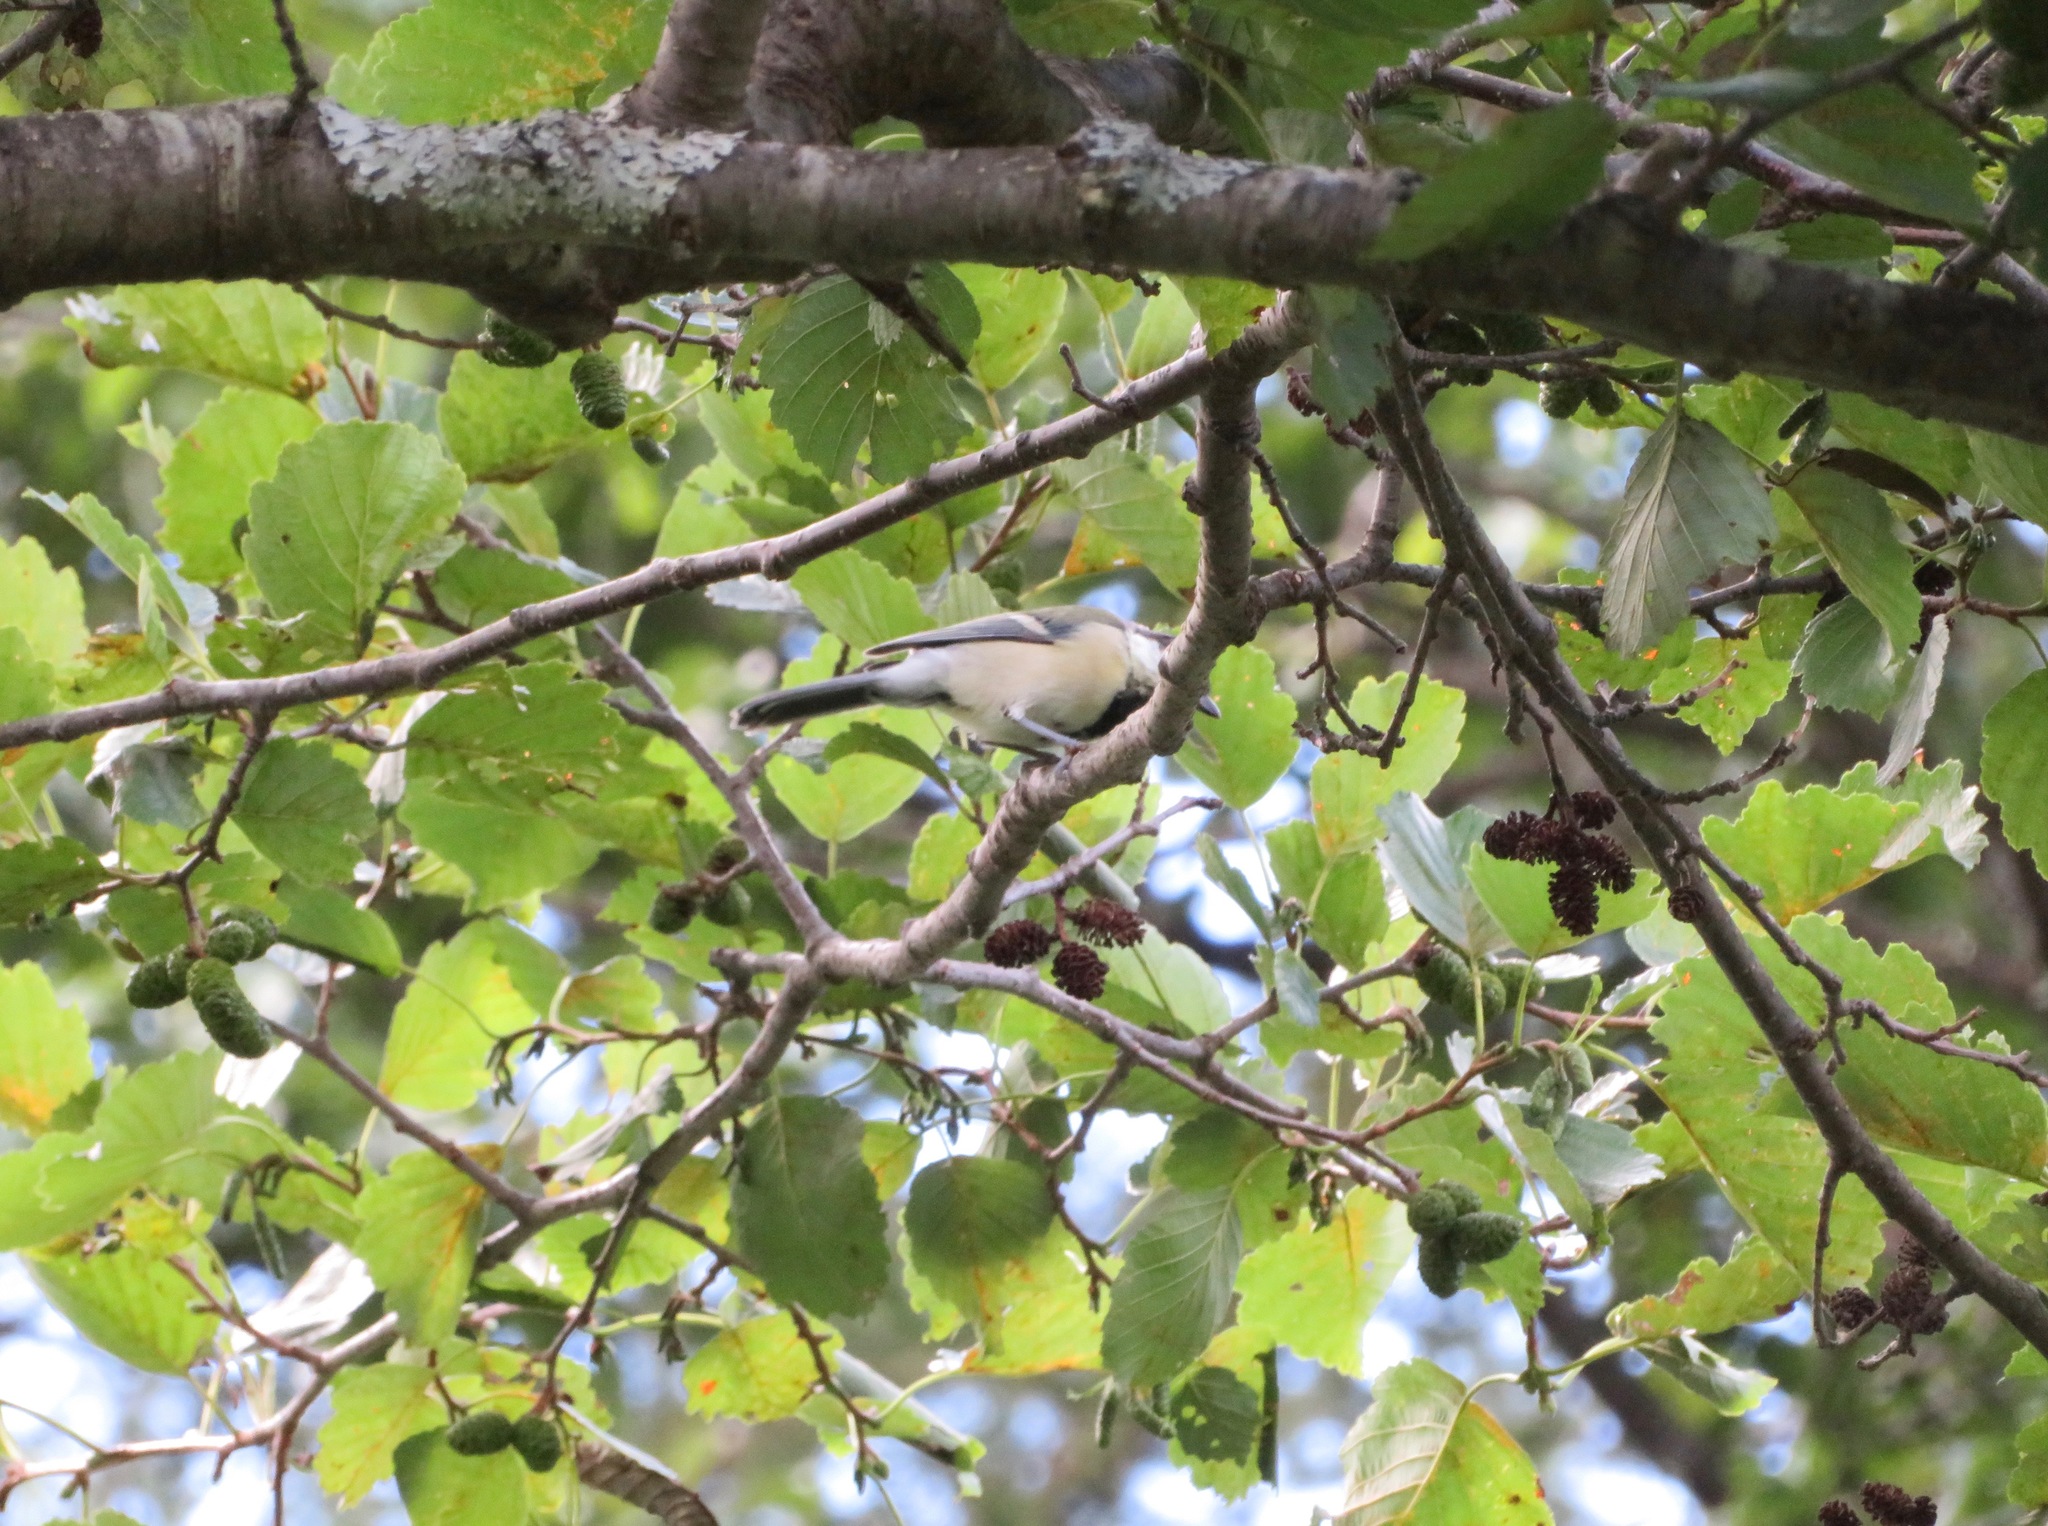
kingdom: Animalia
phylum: Chordata
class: Aves
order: Passeriformes
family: Paridae
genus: Parus
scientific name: Parus minor
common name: Japanese tit
